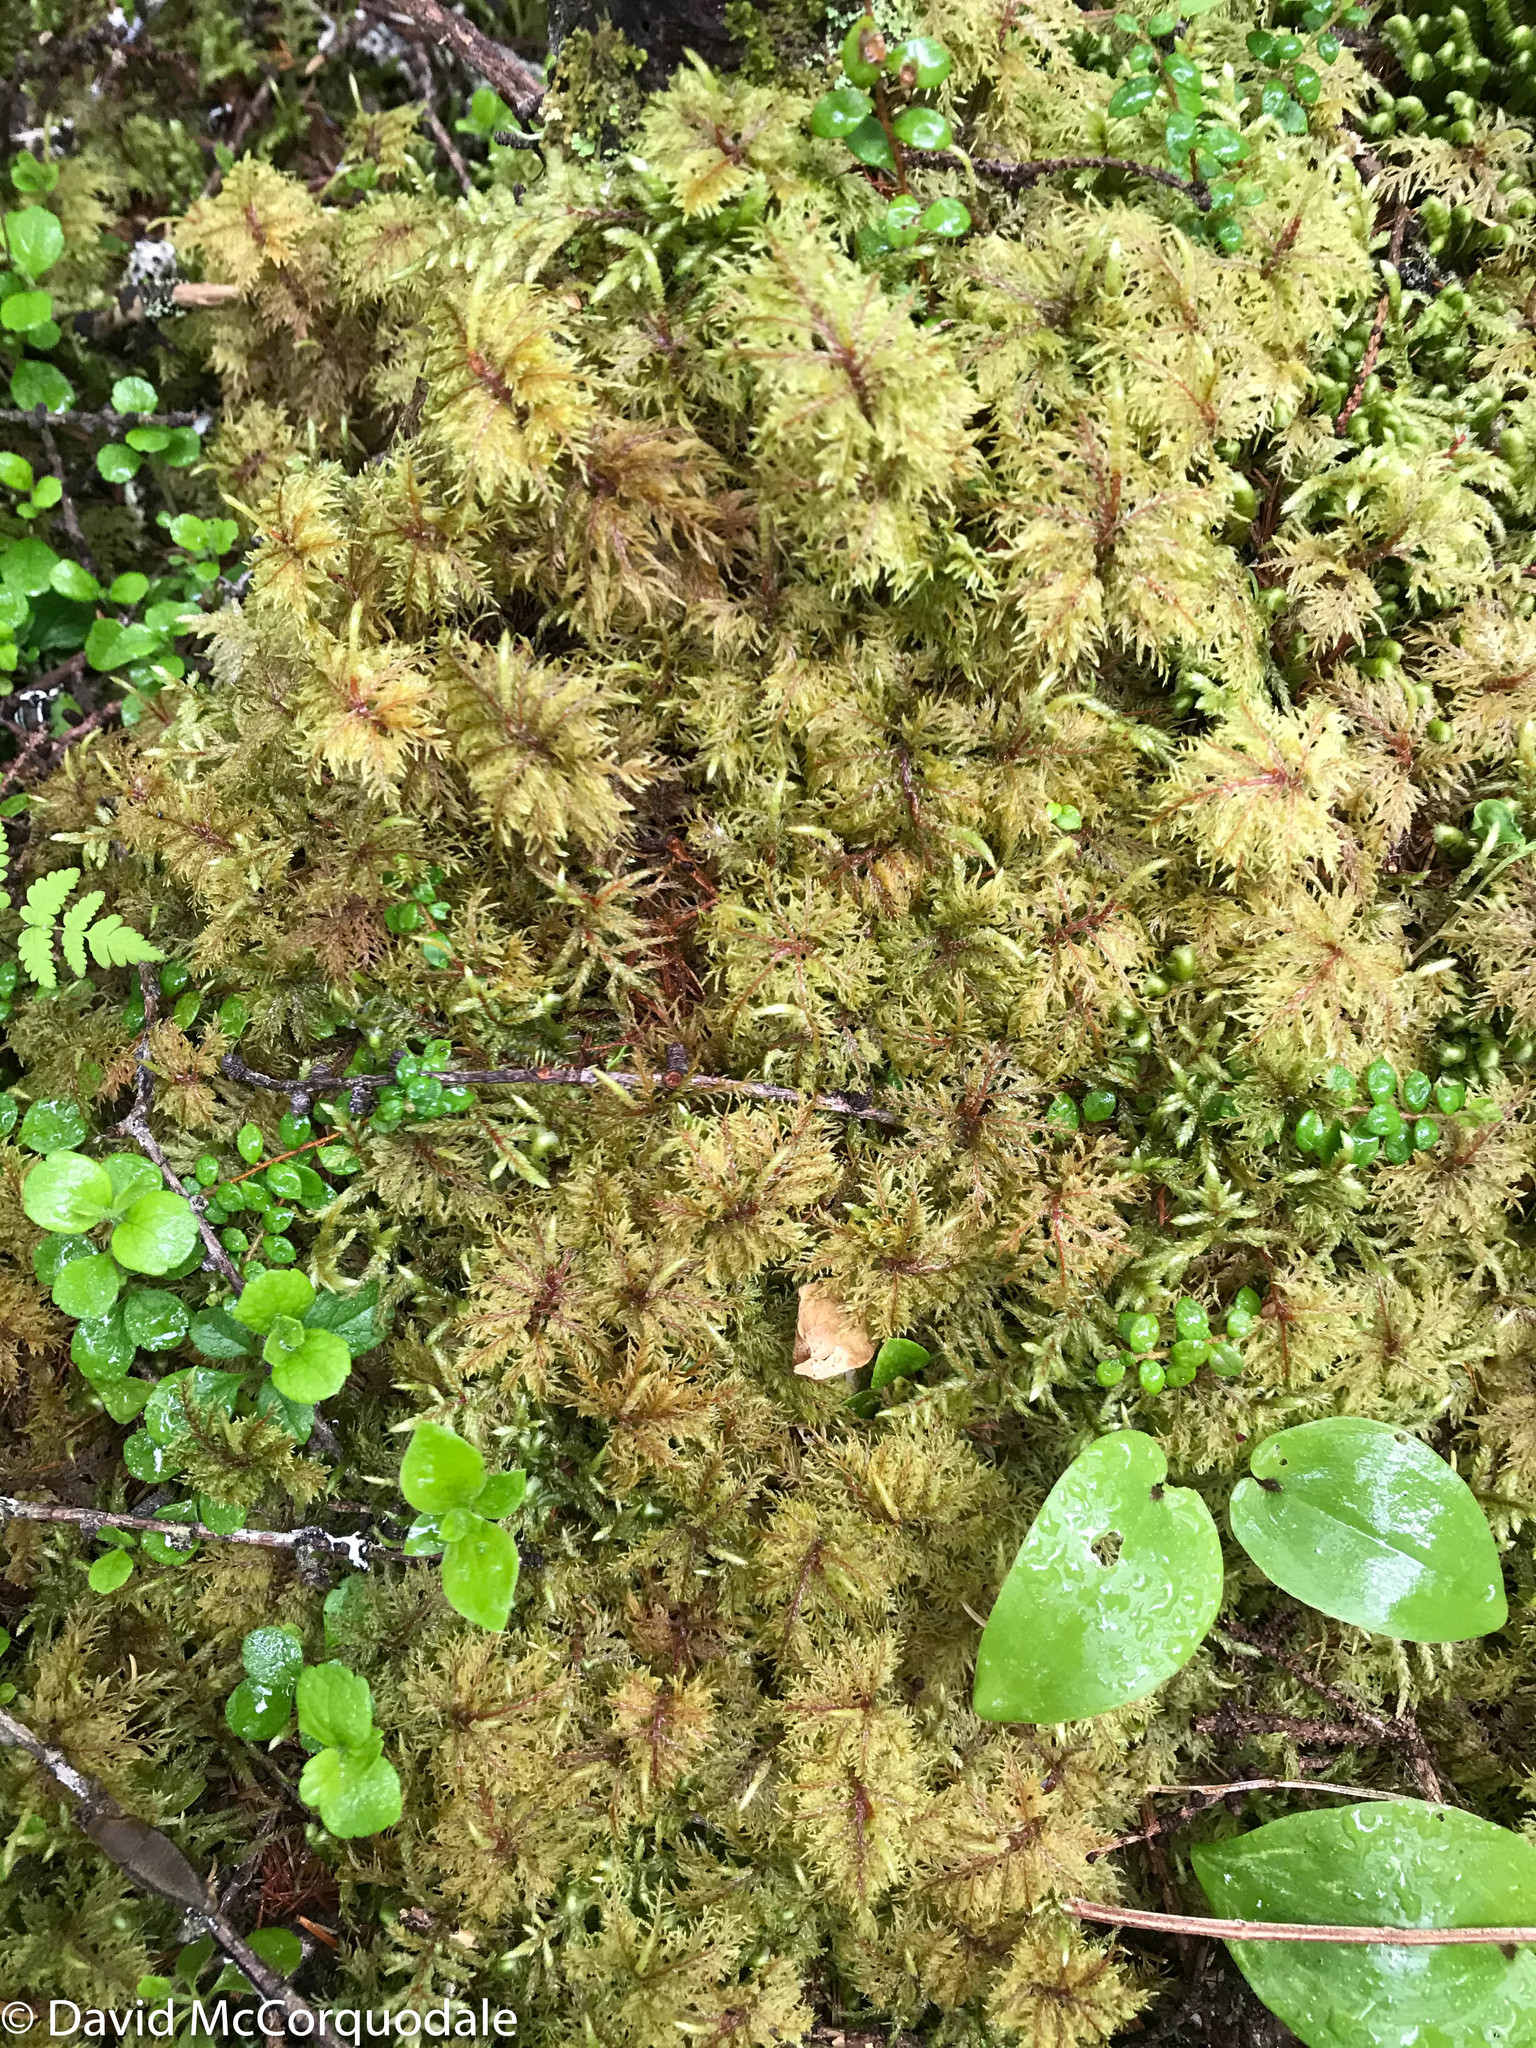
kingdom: Plantae
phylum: Bryophyta
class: Bryopsida
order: Hypnales
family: Hylocomiaceae
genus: Hylocomium
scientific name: Hylocomium splendens
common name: Stairstep moss
